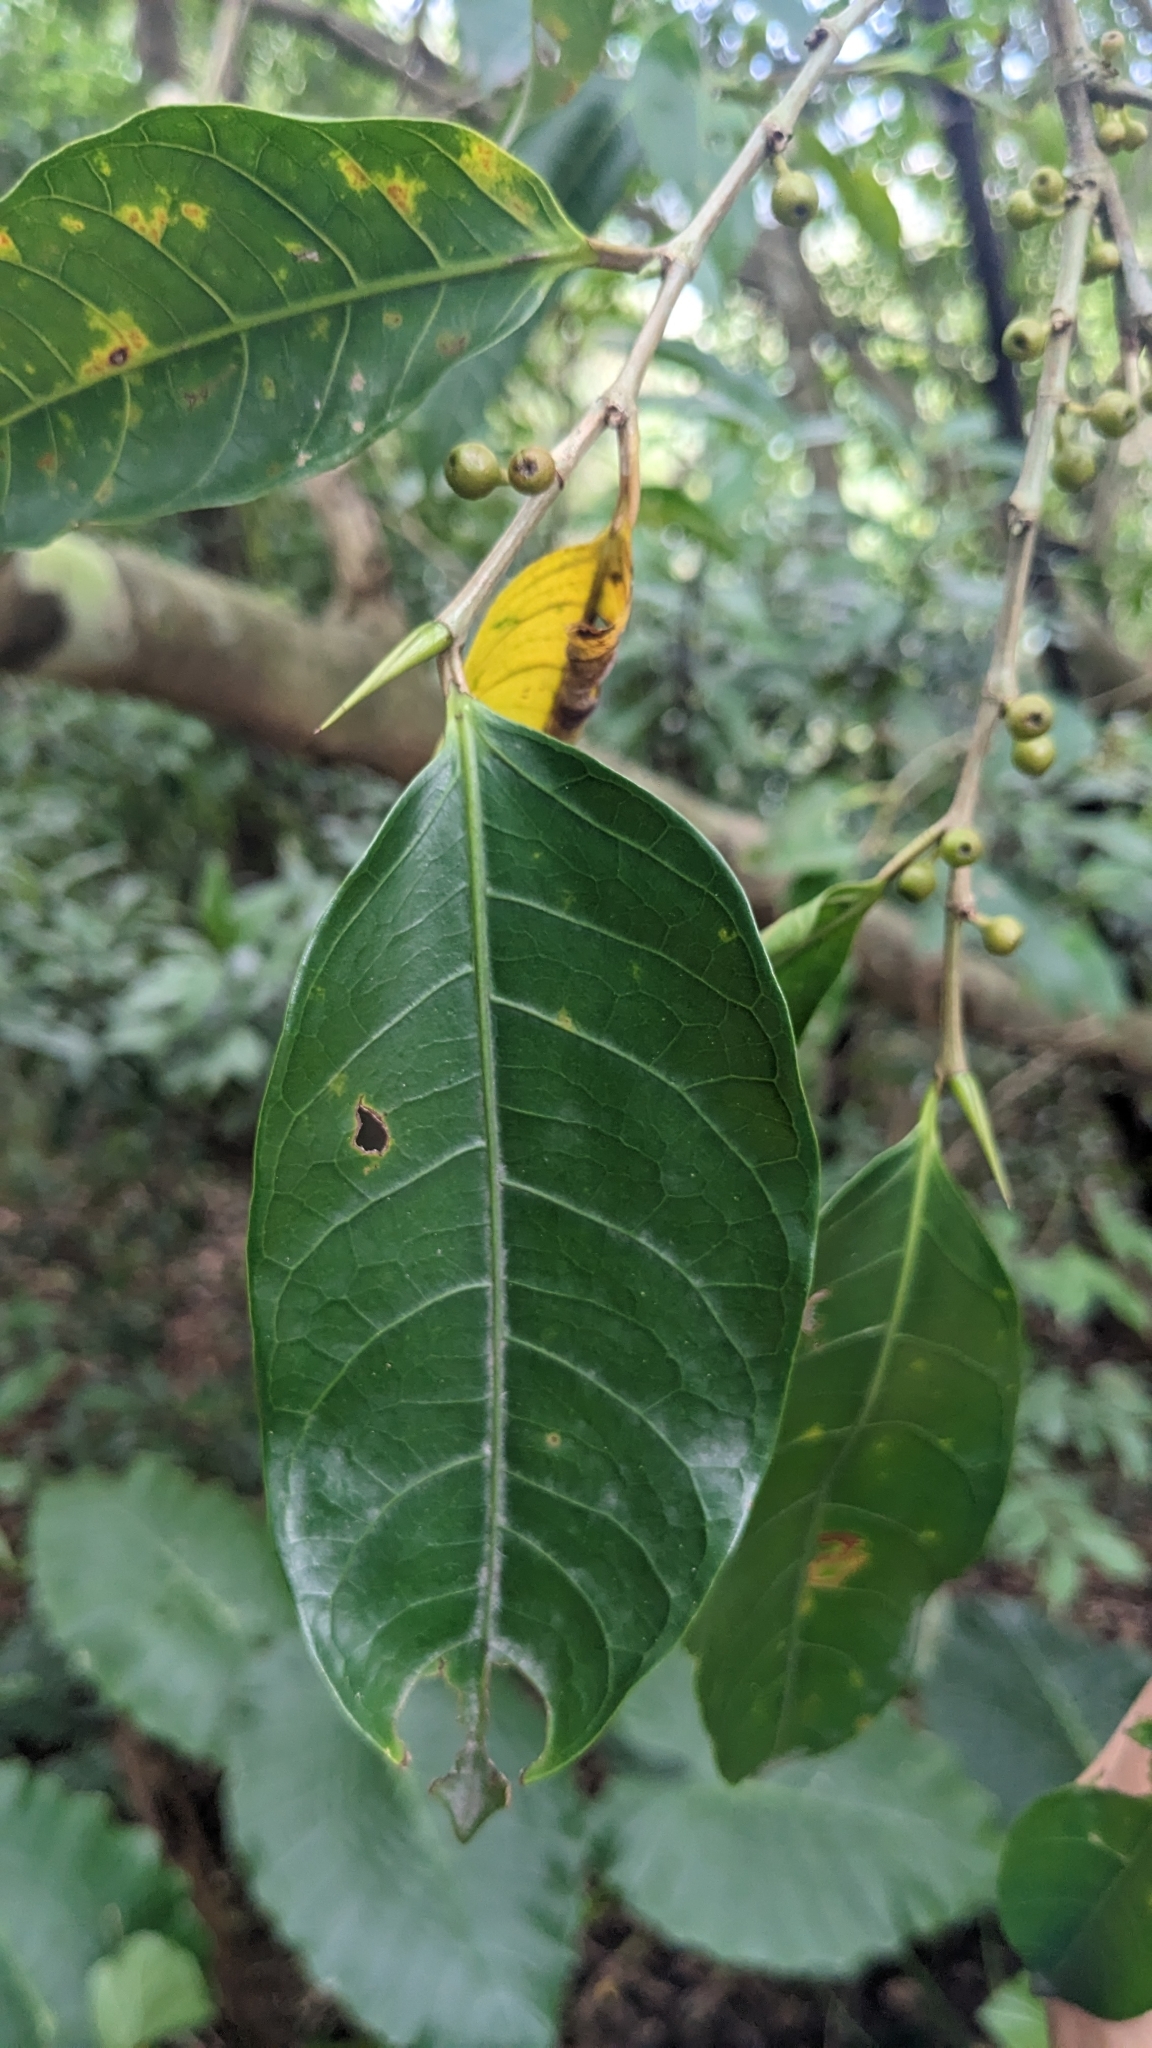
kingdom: Plantae
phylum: Tracheophyta
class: Magnoliopsida
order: Rosales
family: Moraceae
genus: Ficus
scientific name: Ficus virgata
